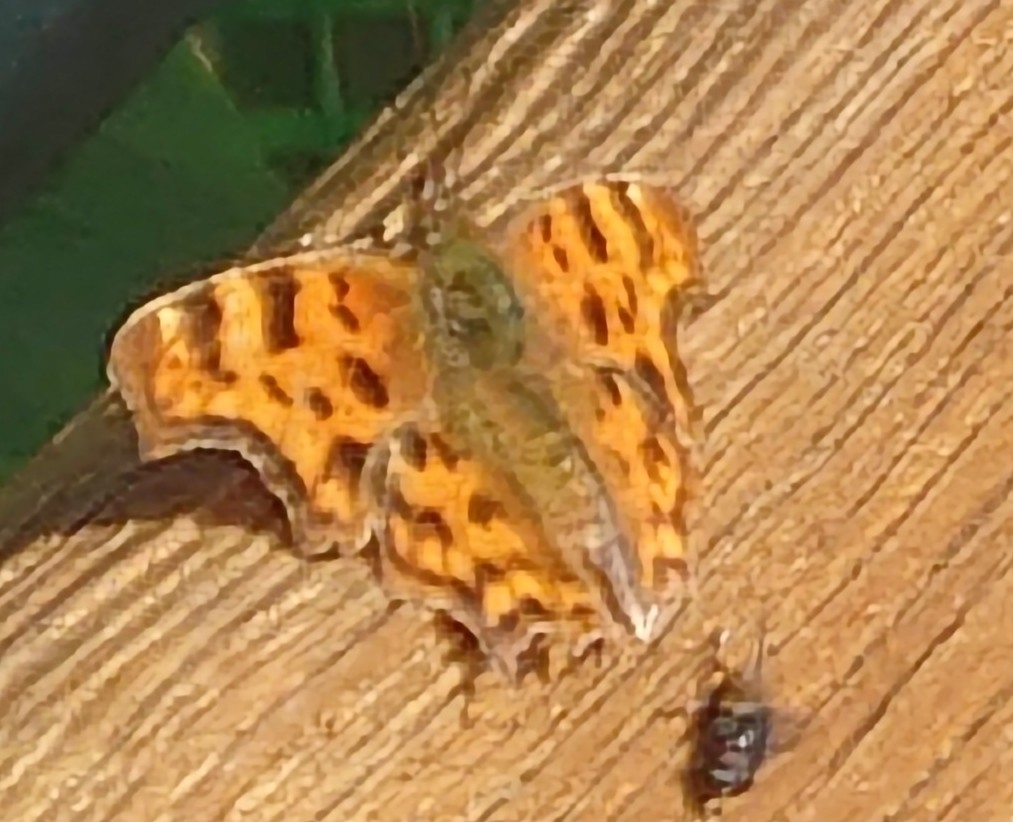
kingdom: Animalia
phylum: Arthropoda
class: Insecta
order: Lepidoptera
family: Nymphalidae
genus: Polygonia
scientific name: Polygonia c-album
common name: Comma
